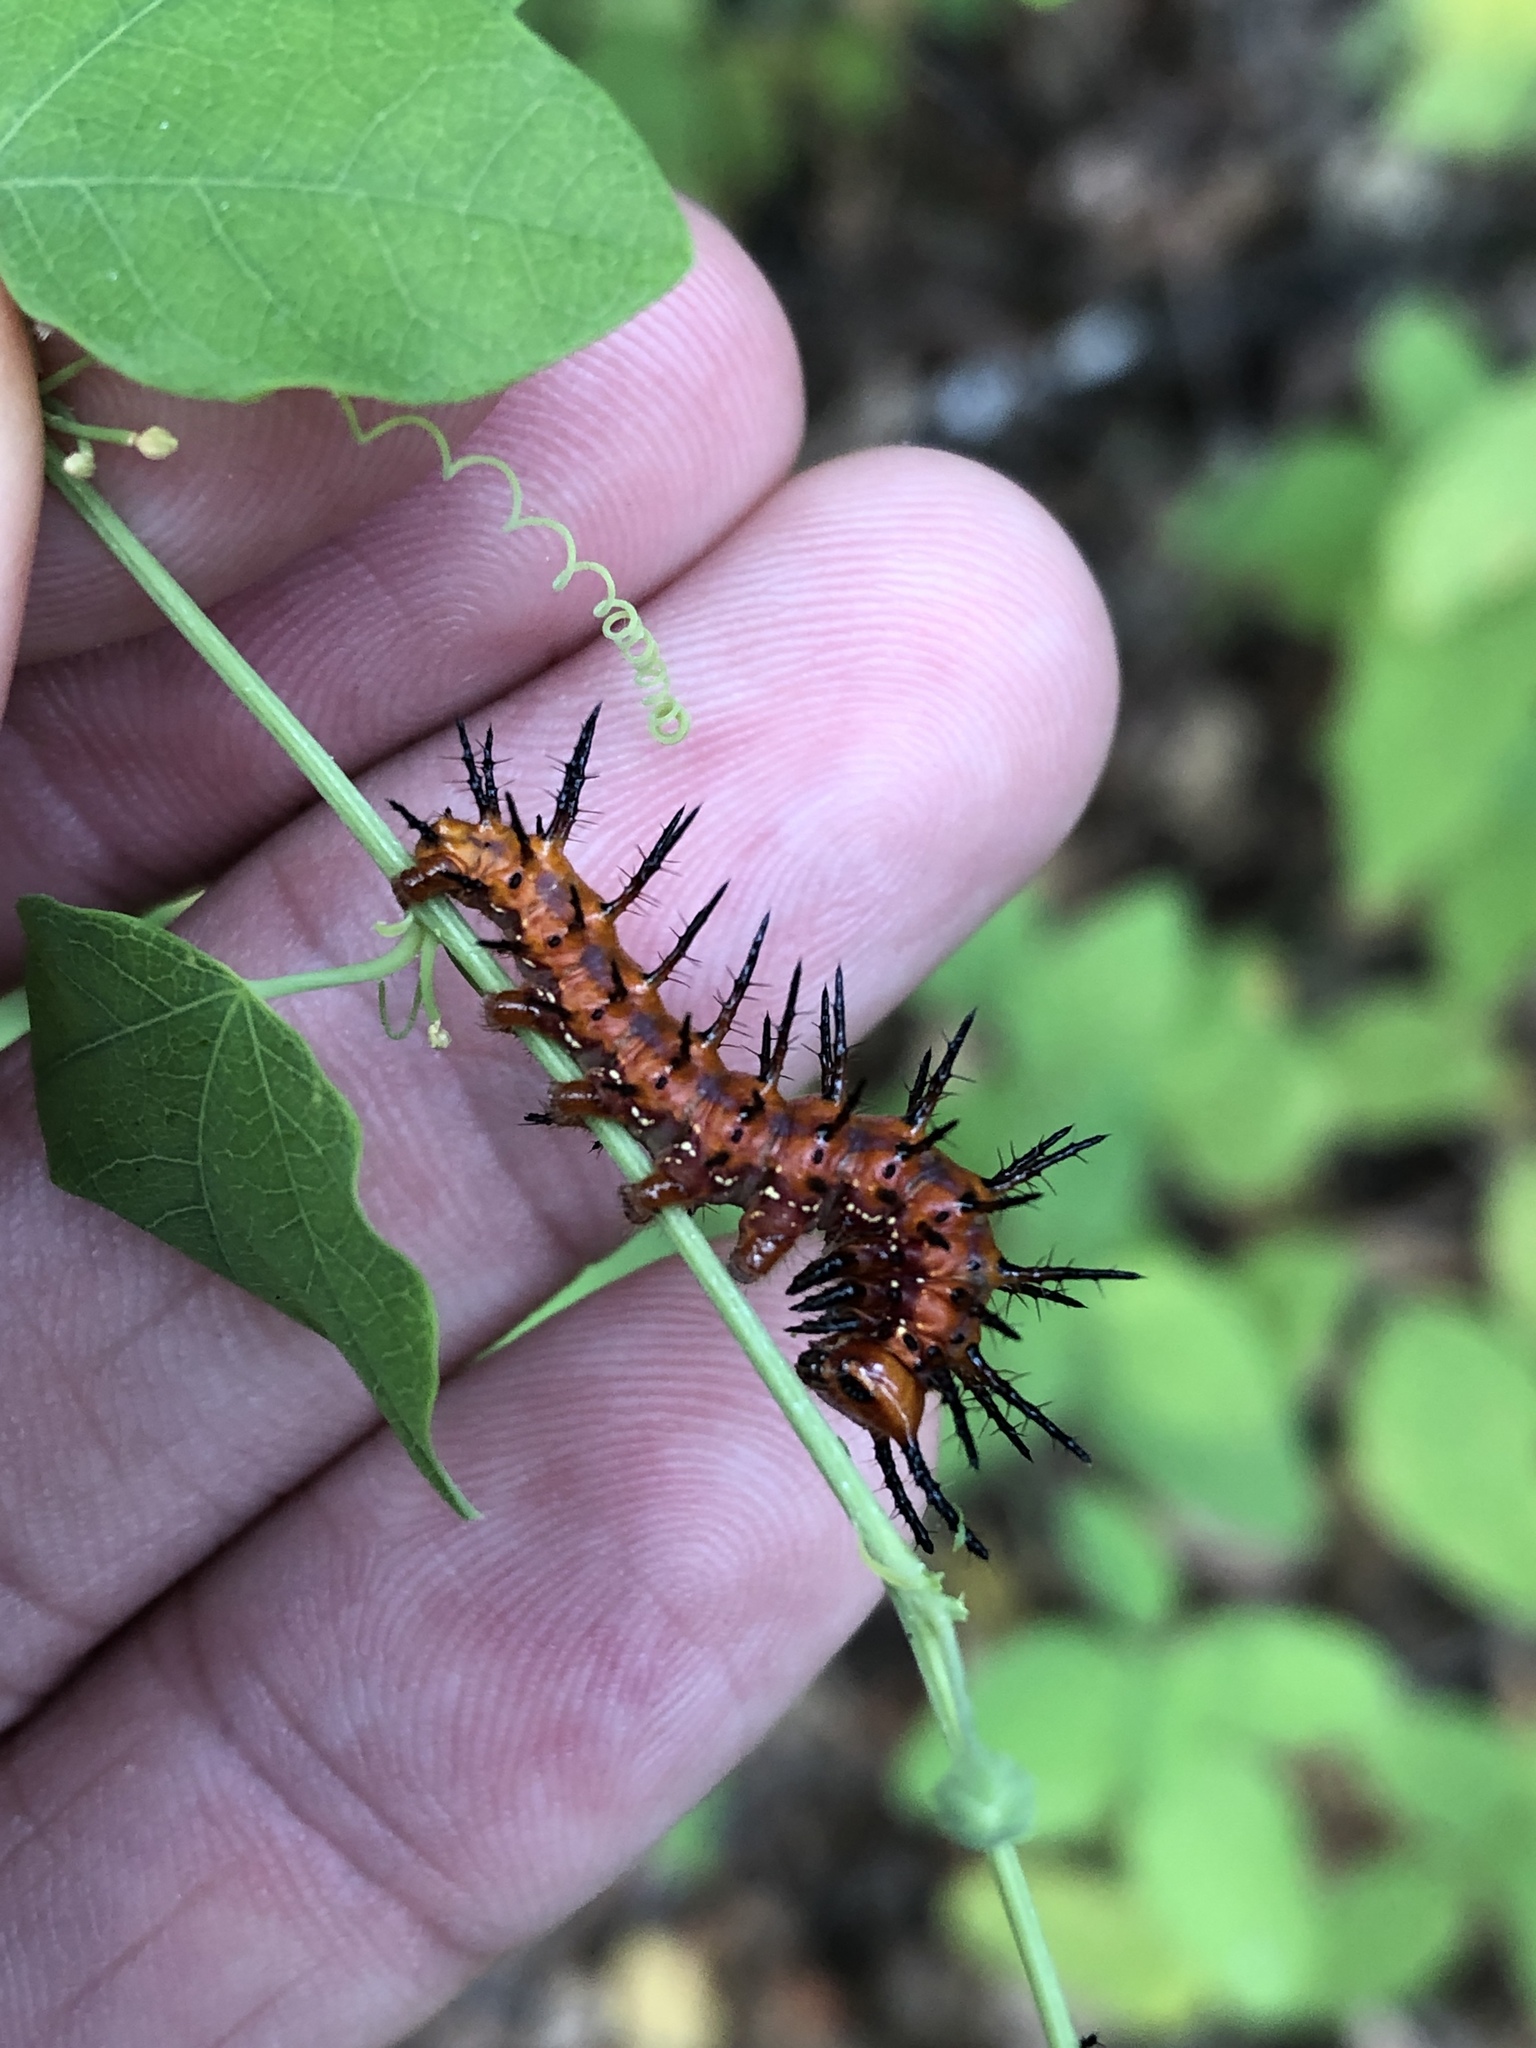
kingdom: Animalia
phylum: Arthropoda
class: Insecta
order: Lepidoptera
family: Nymphalidae
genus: Dione
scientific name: Dione vanillae
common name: Gulf fritillary
